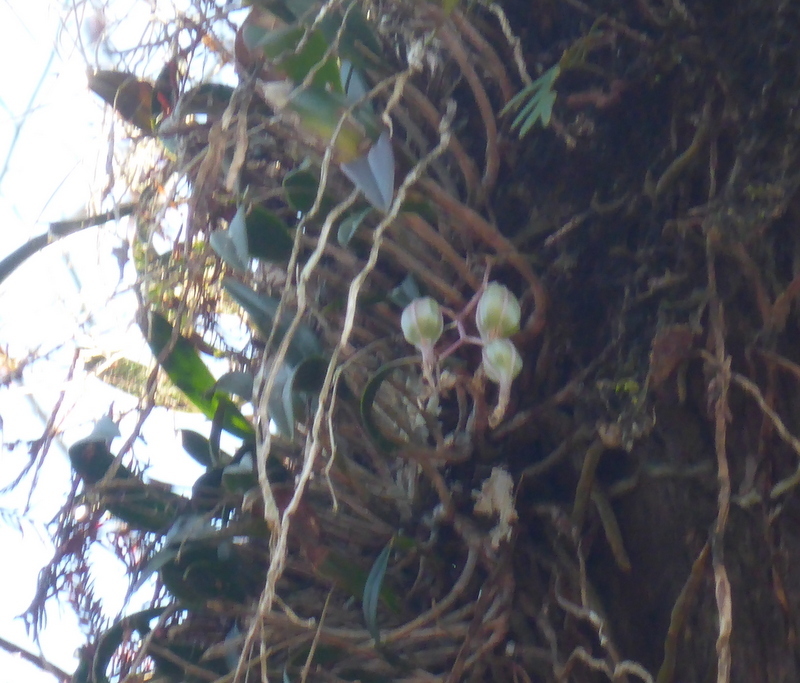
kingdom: Plantae
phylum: Tracheophyta
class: Liliopsida
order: Asparagales
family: Orchidaceae
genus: Epidendrum
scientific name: Epidendrum conopseum
